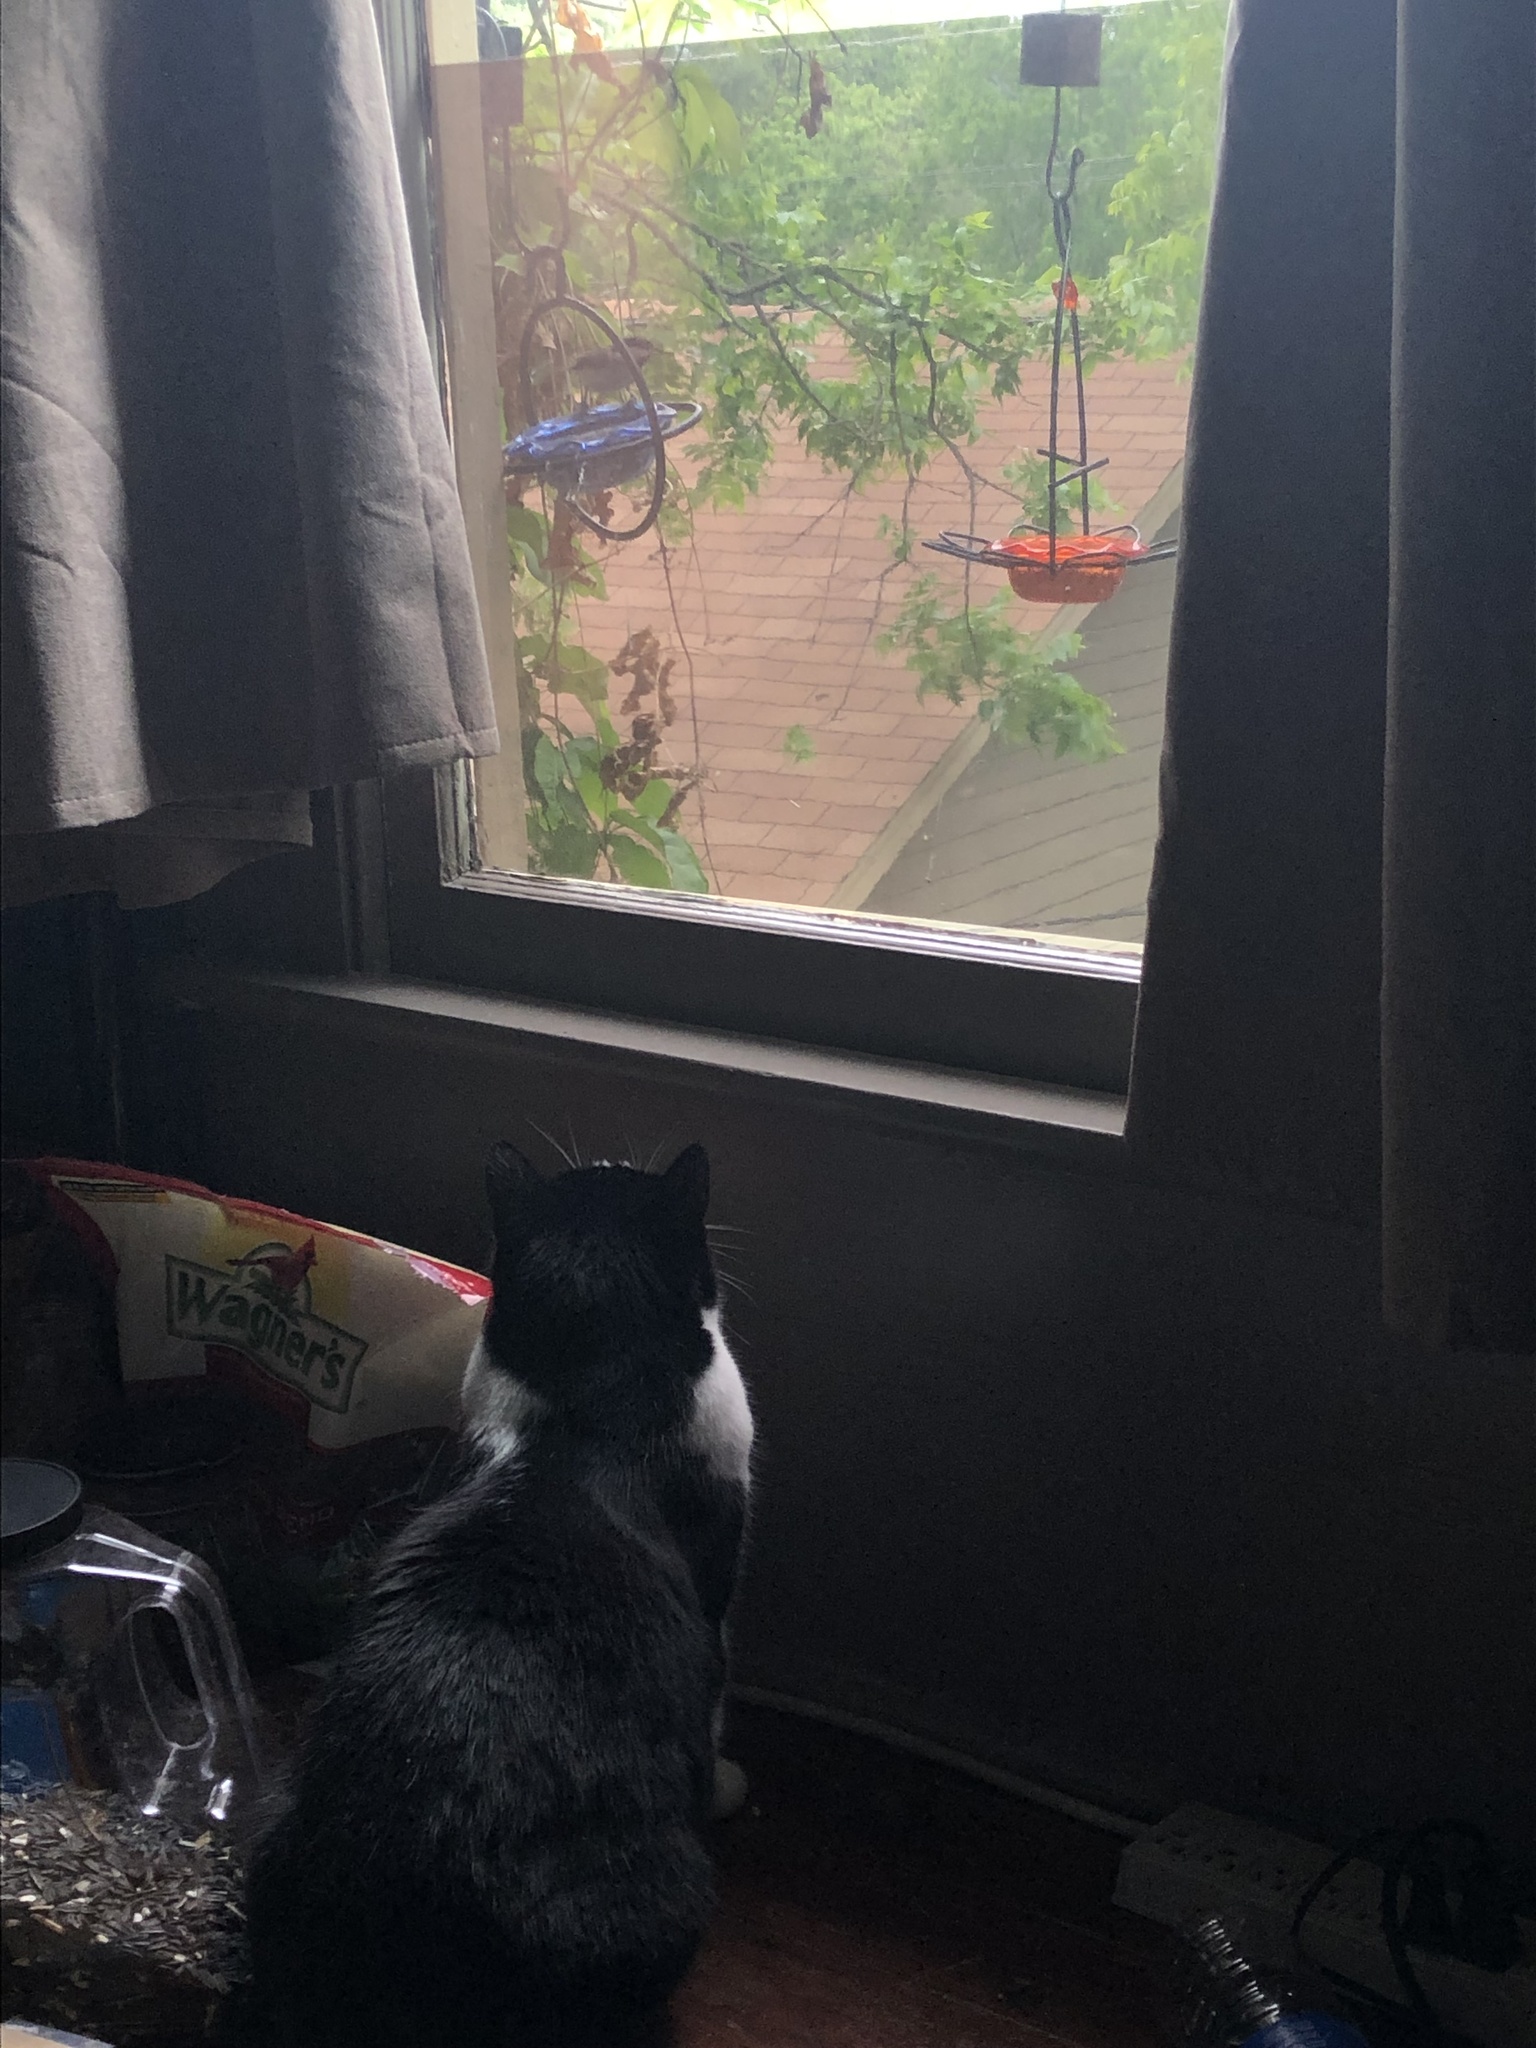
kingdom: Animalia
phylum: Chordata
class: Aves
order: Passeriformes
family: Paridae
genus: Poecile
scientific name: Poecile carolinensis
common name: Carolina chickadee
